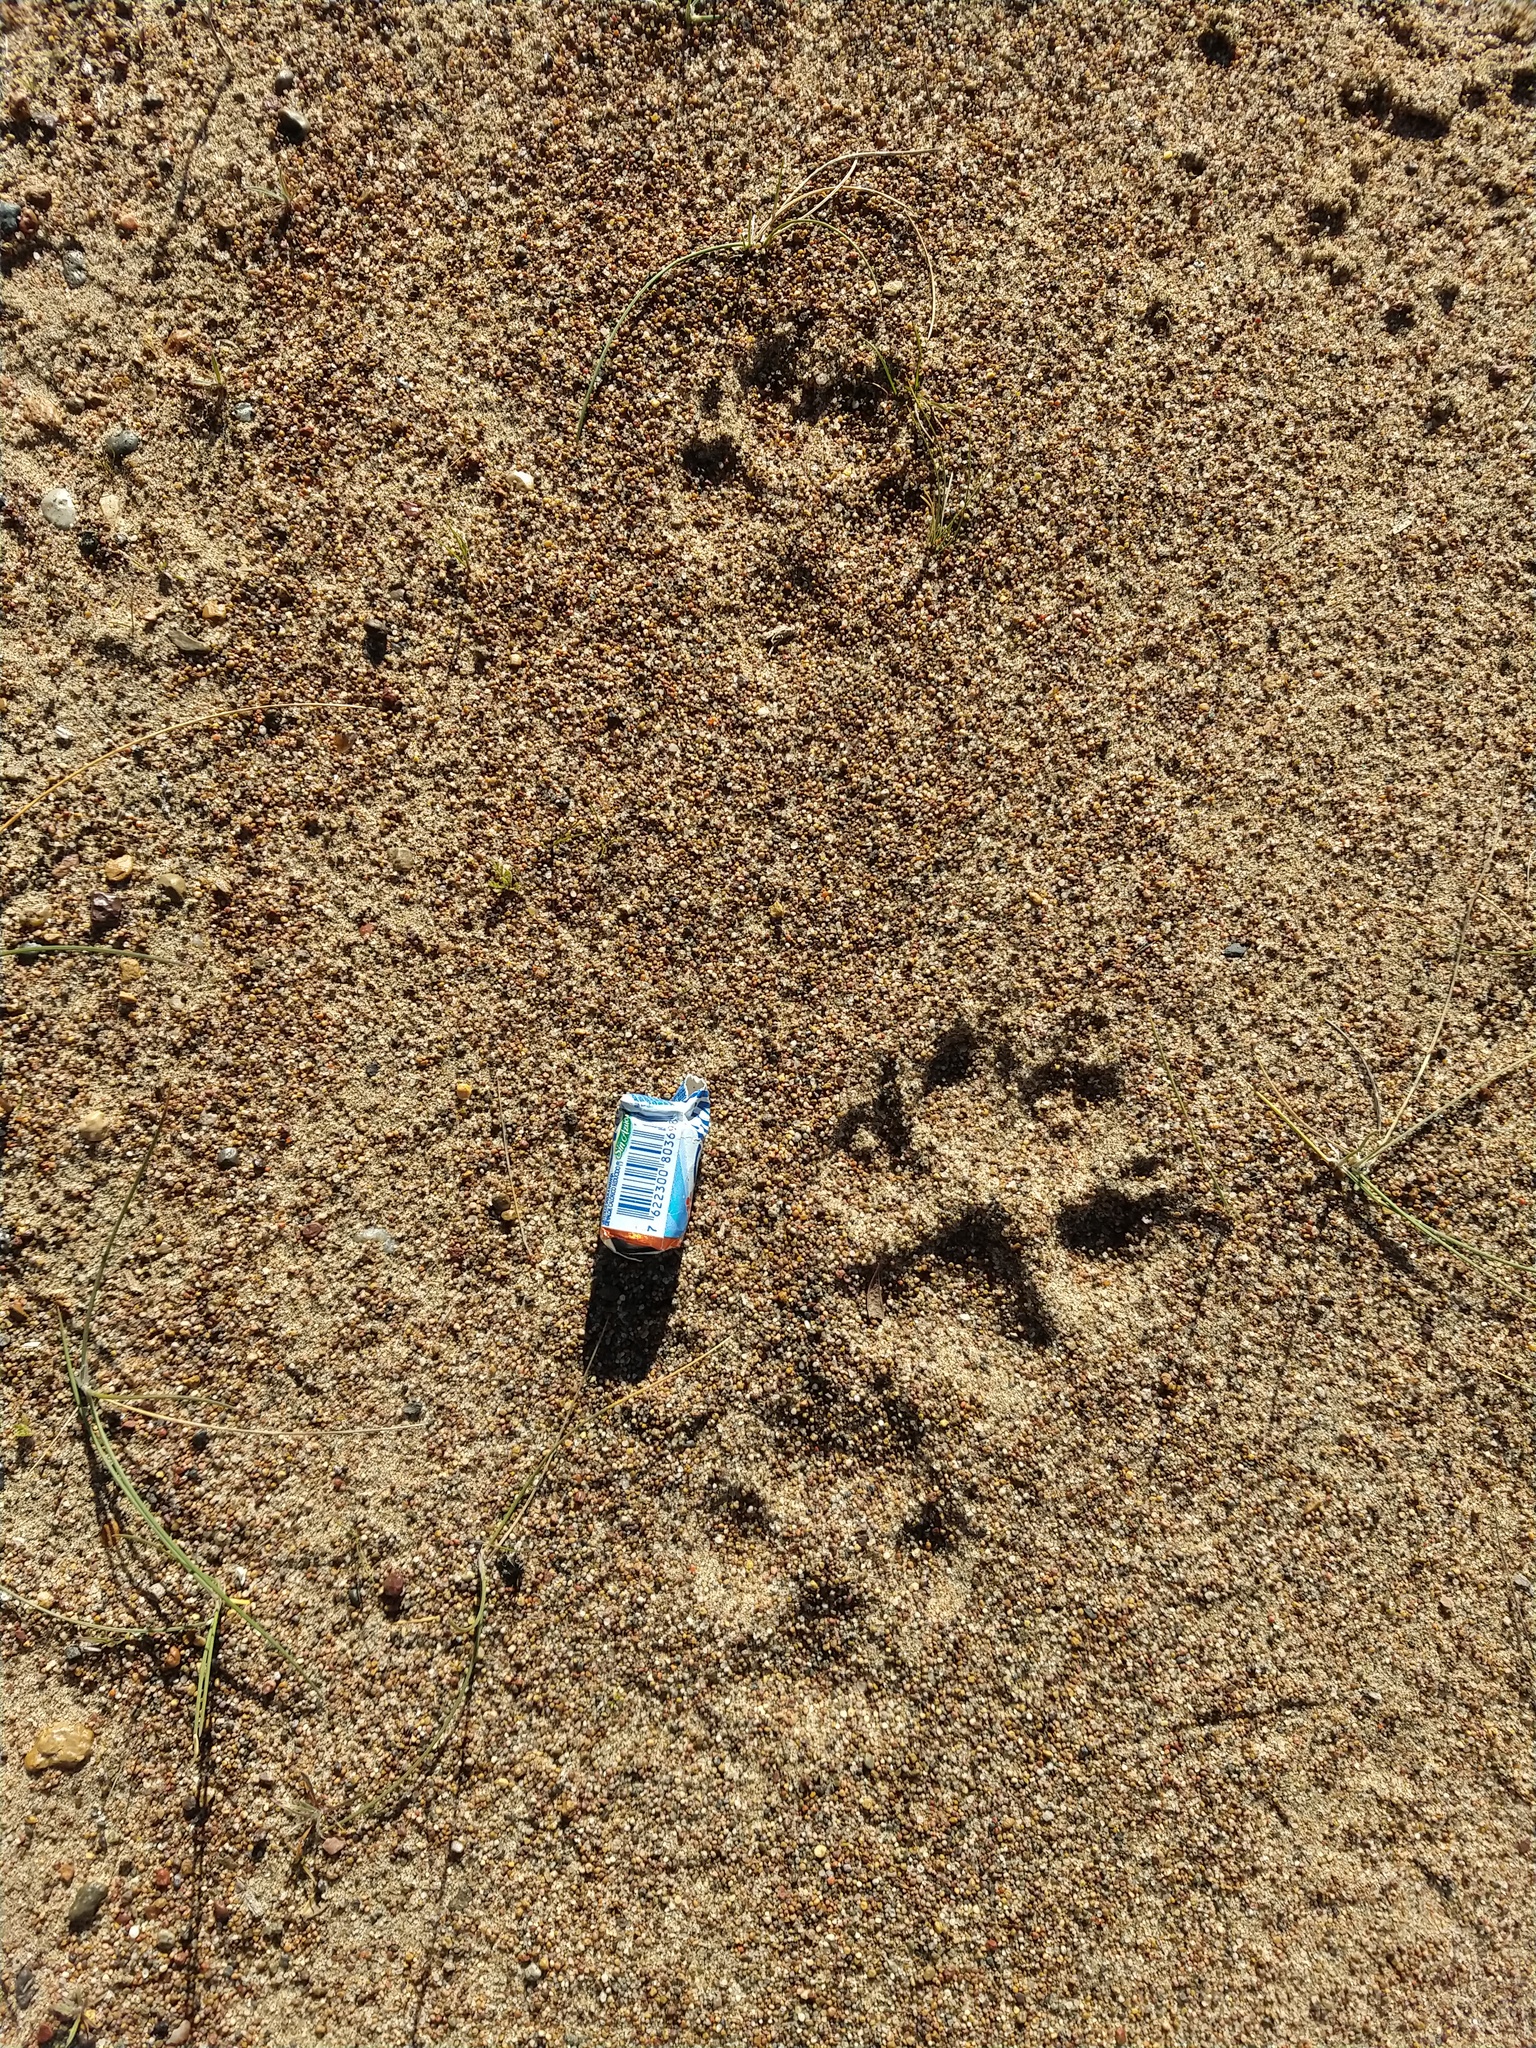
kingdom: Animalia
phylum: Chordata
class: Mammalia
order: Carnivora
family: Canidae
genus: Canis
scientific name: Canis lupus
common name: Gray wolf
